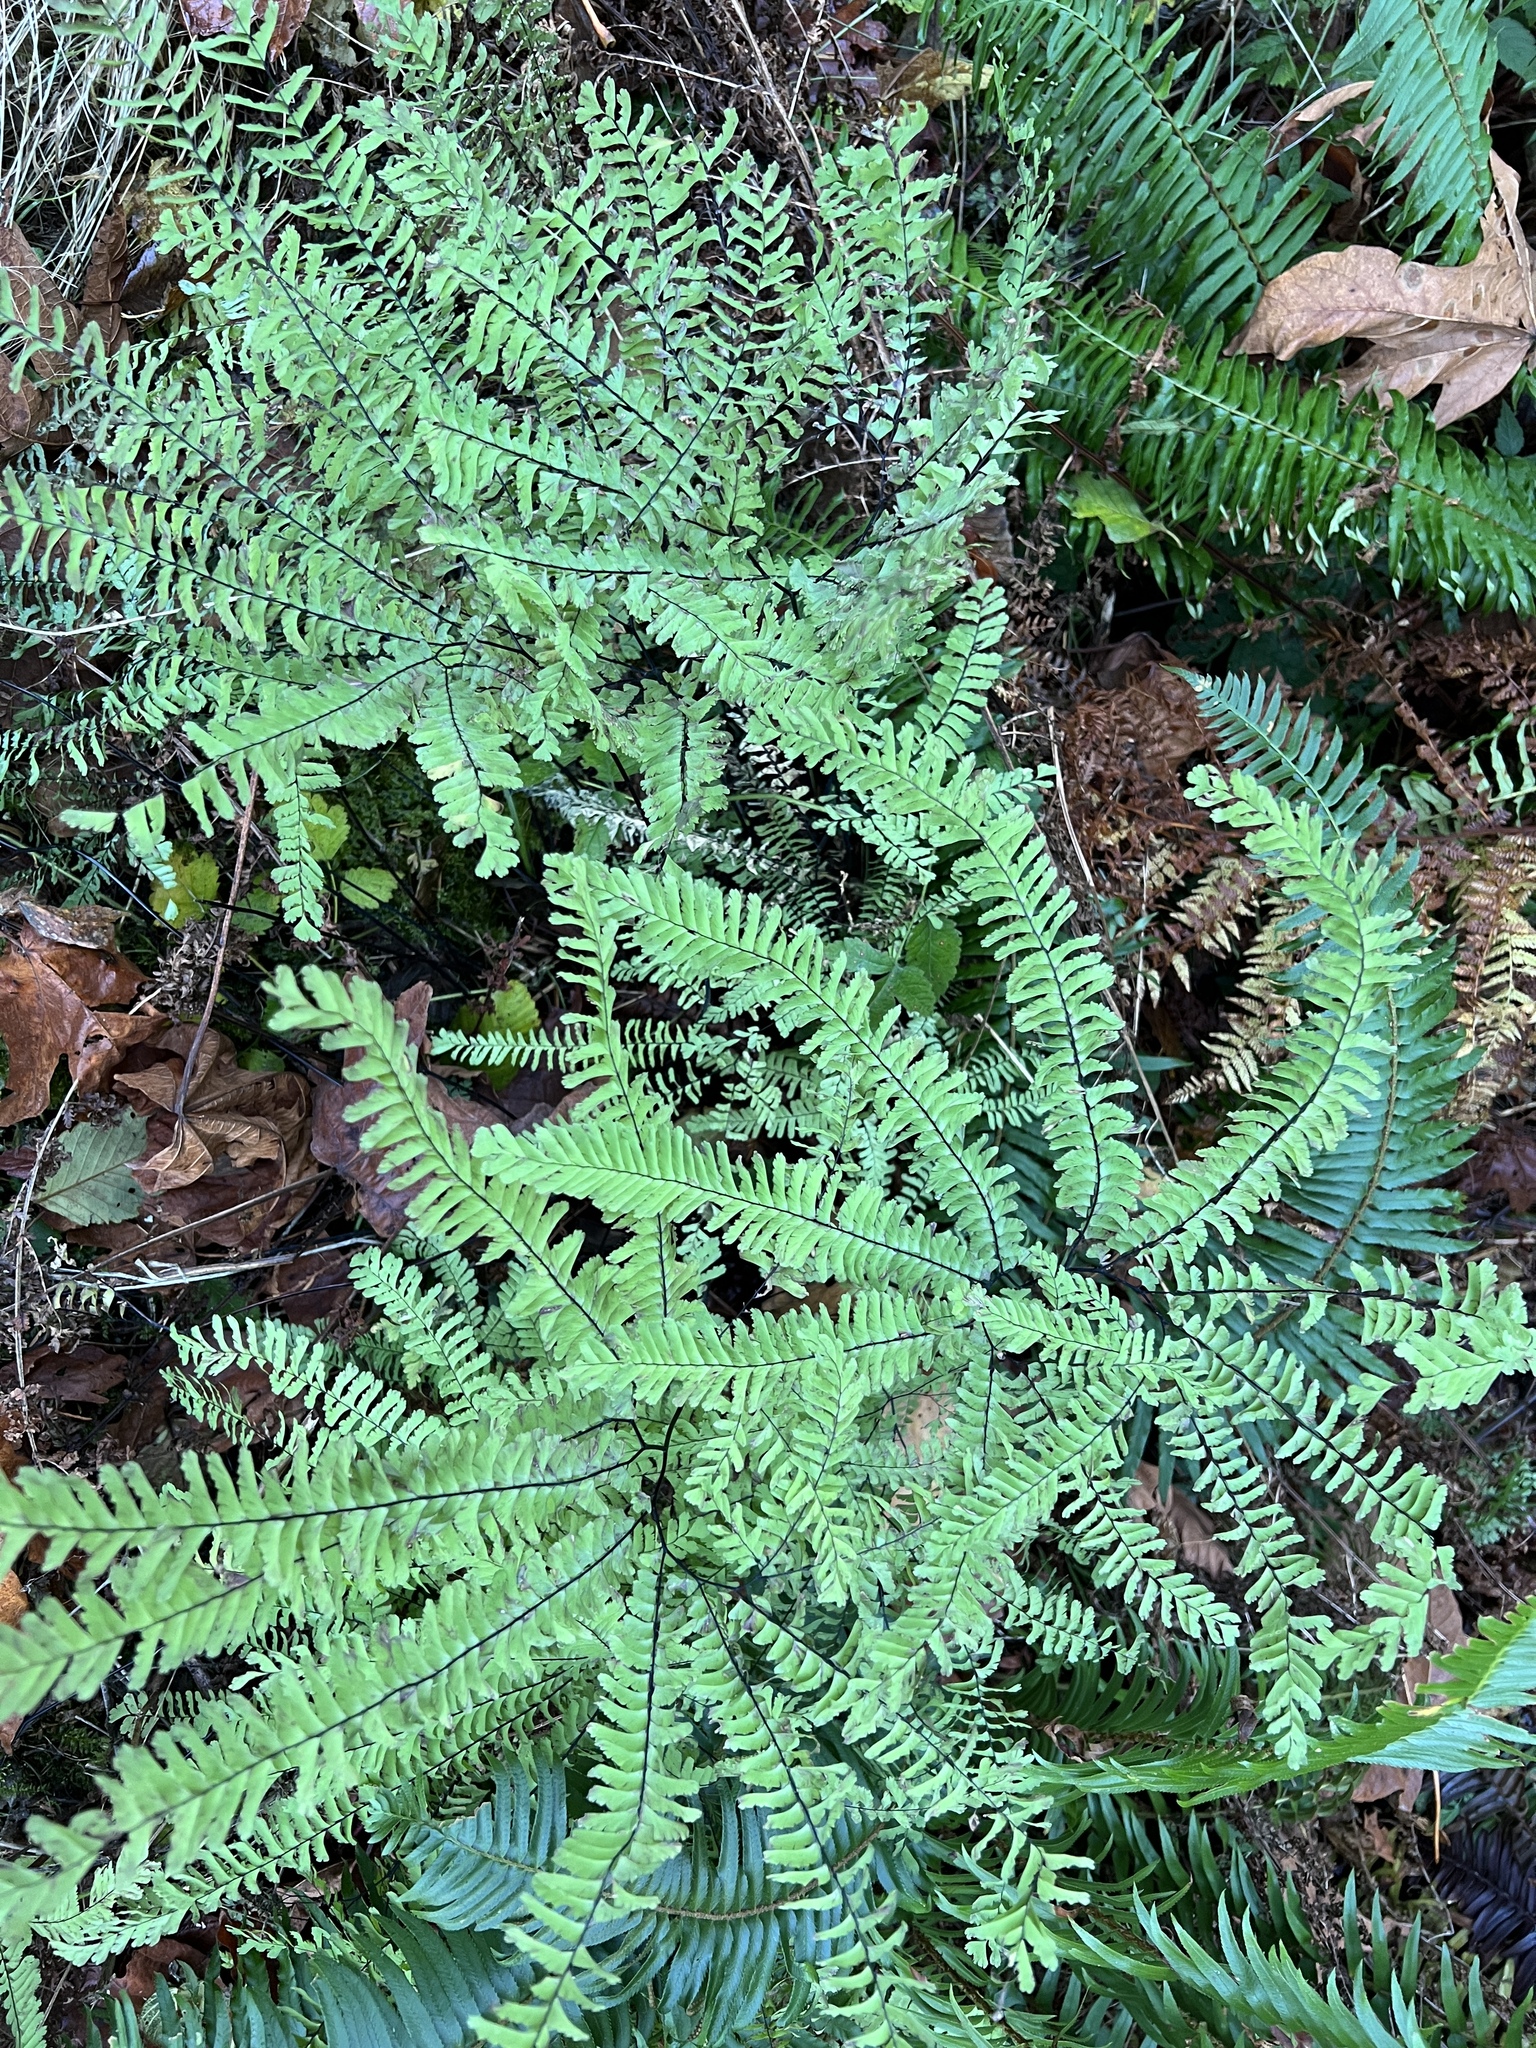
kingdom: Plantae
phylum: Tracheophyta
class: Polypodiopsida
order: Polypodiales
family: Pteridaceae
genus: Adiantum
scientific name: Adiantum aleuticum
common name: Aleutian maidenhair fern
